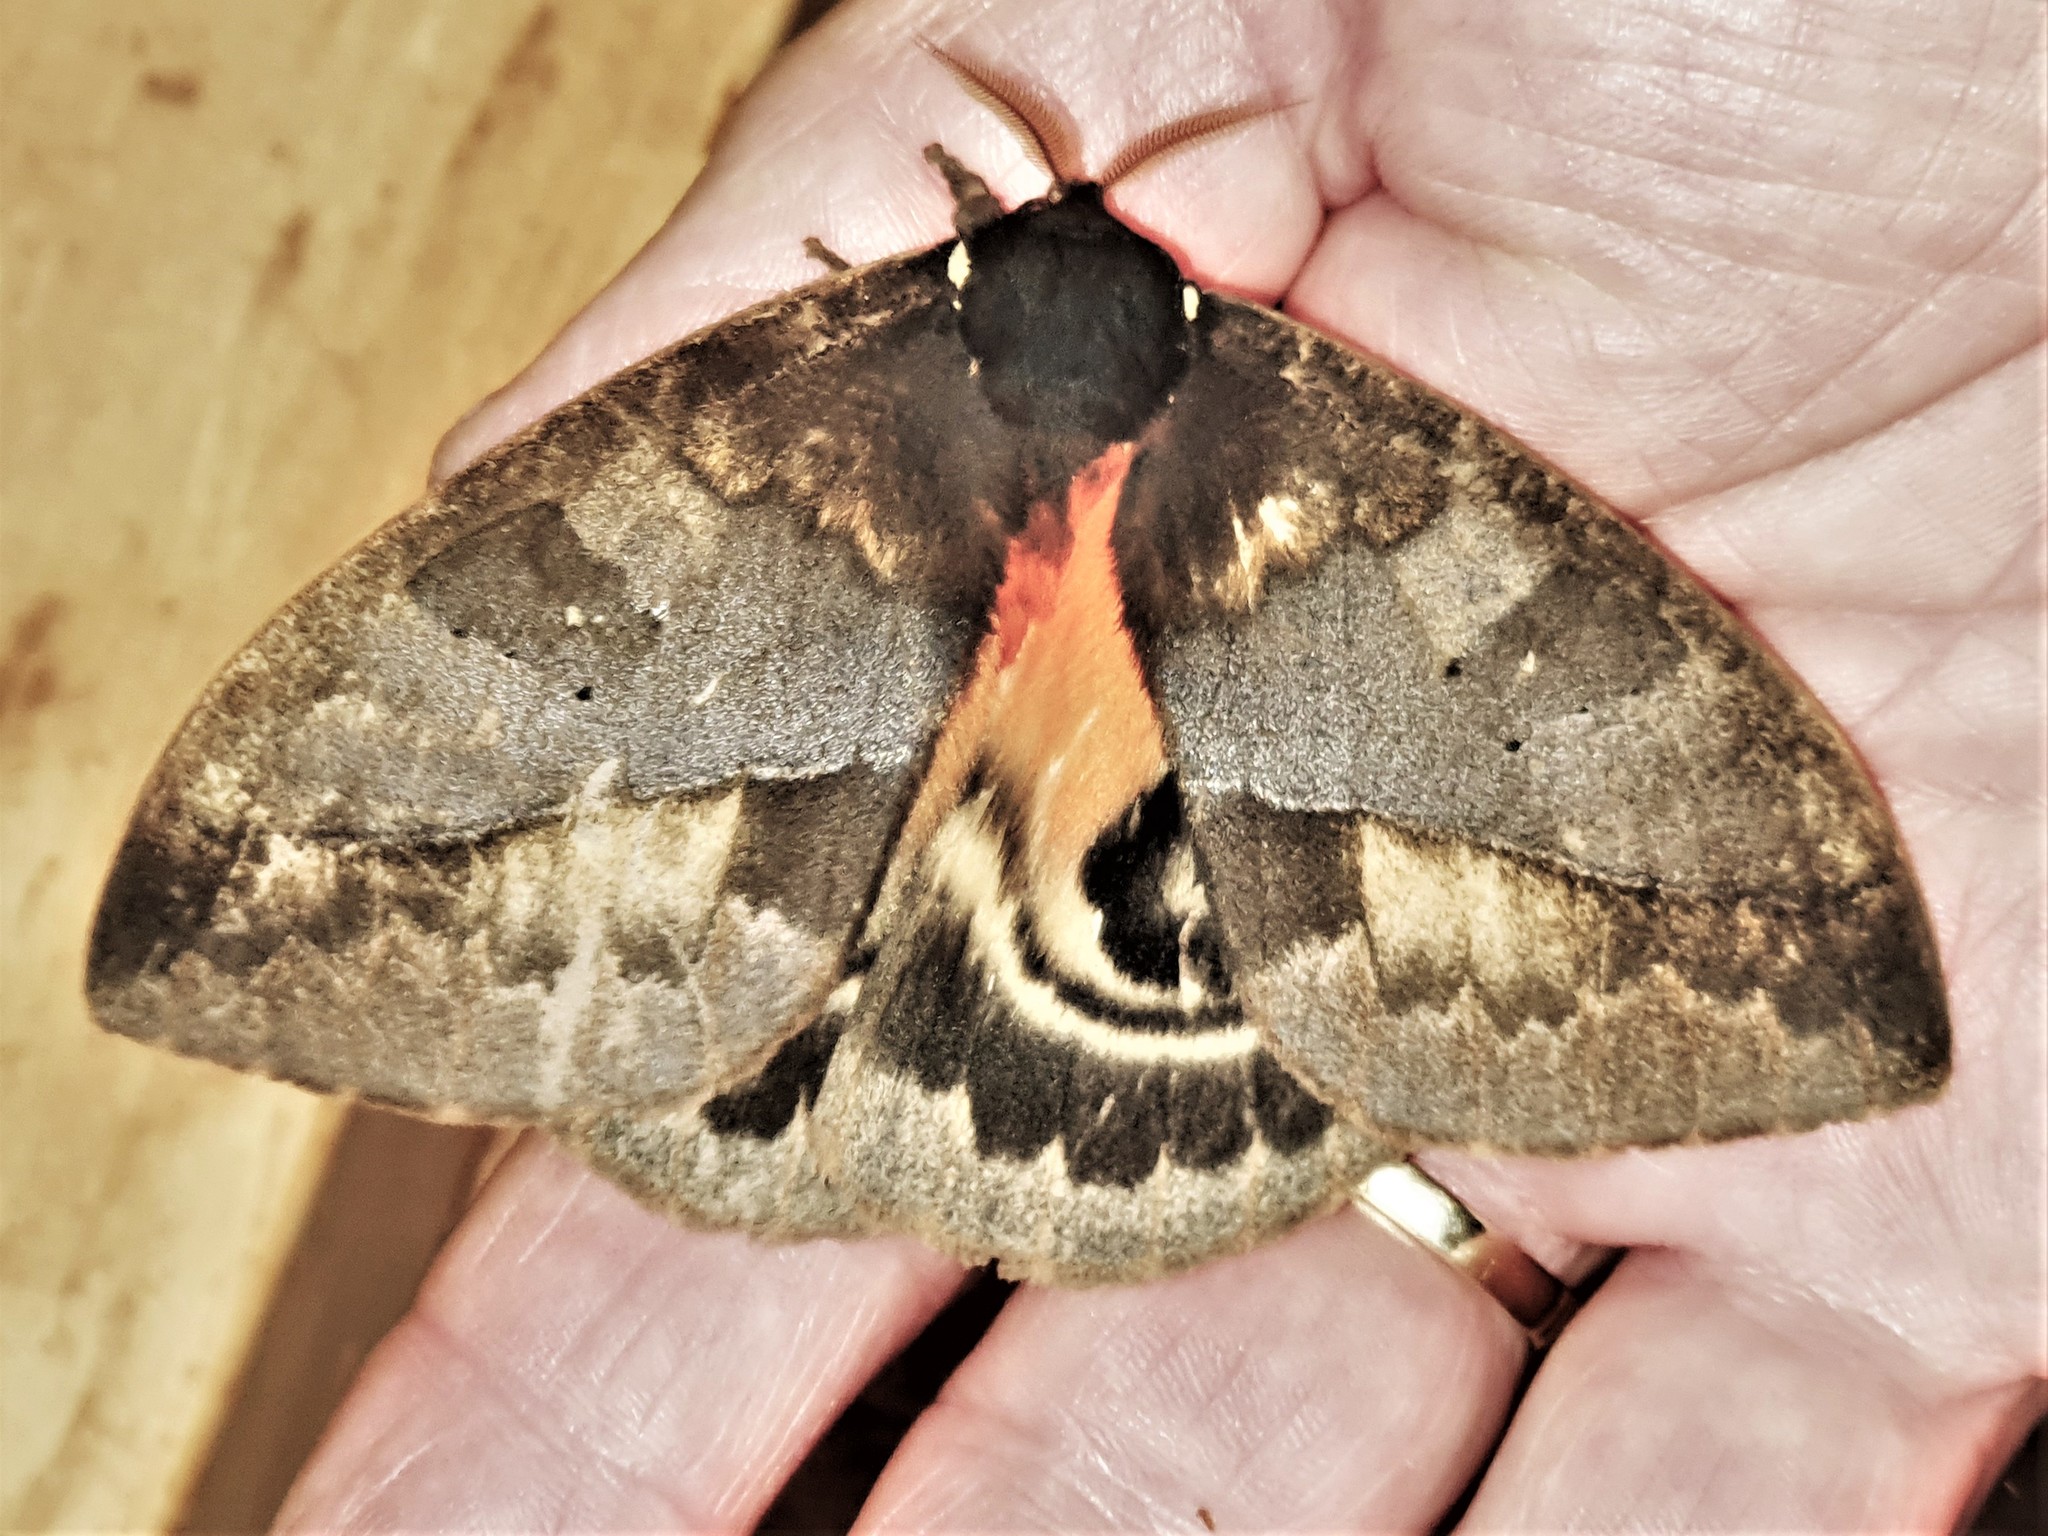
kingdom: Animalia
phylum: Arthropoda
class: Insecta
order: Lepidoptera
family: Saturniidae
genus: Automeris
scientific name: Automeris larra
